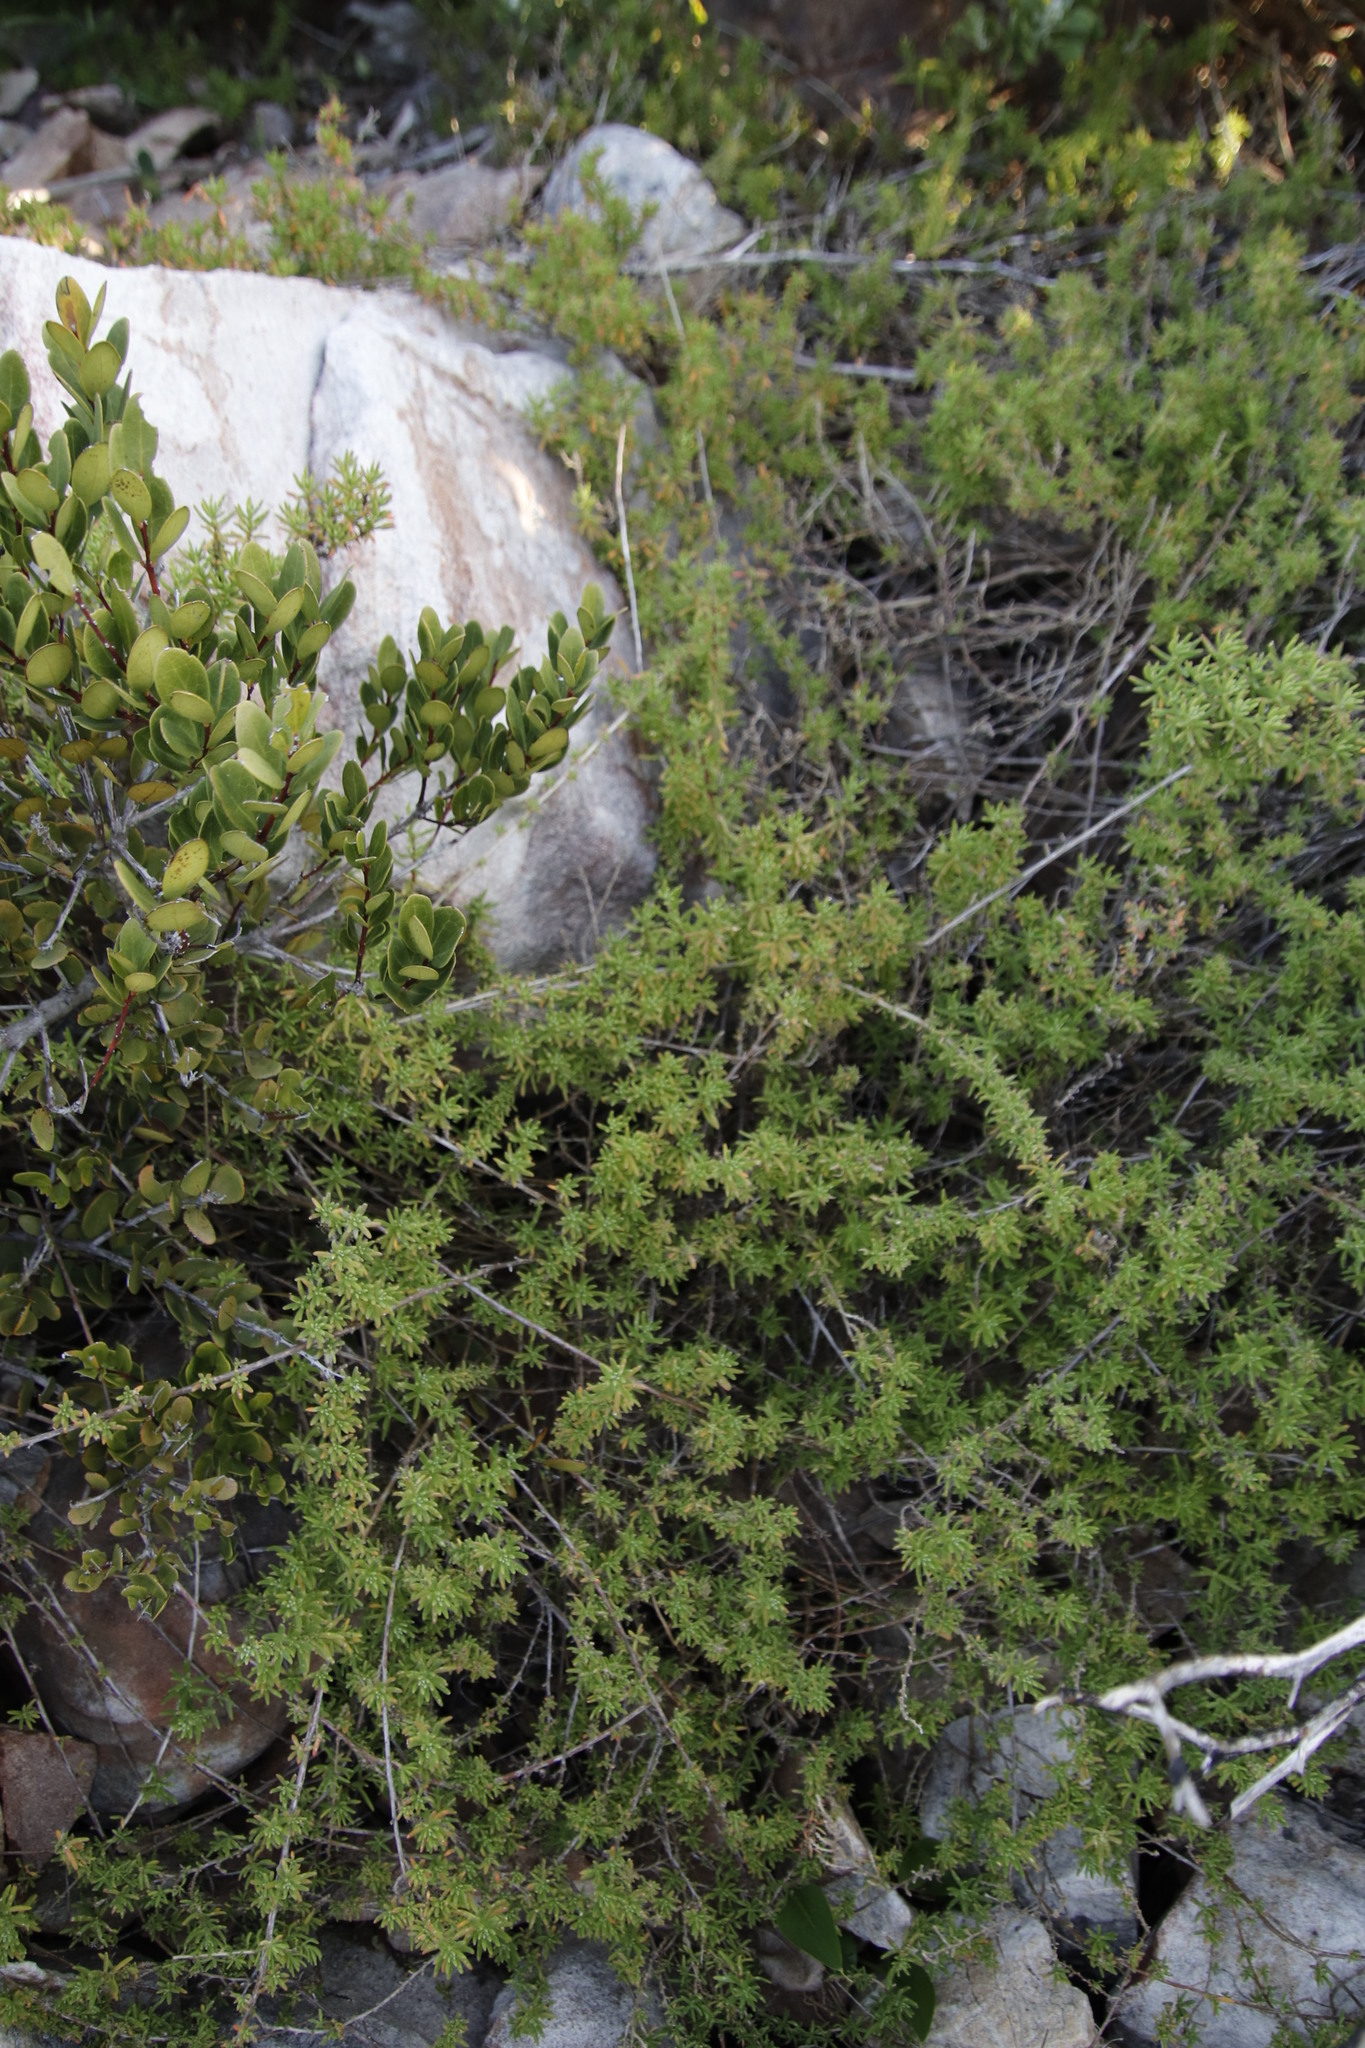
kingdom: Plantae
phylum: Tracheophyta
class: Magnoliopsida
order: Caryophyllales
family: Aizoaceae
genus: Tetragonia
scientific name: Tetragonia fruticosa
